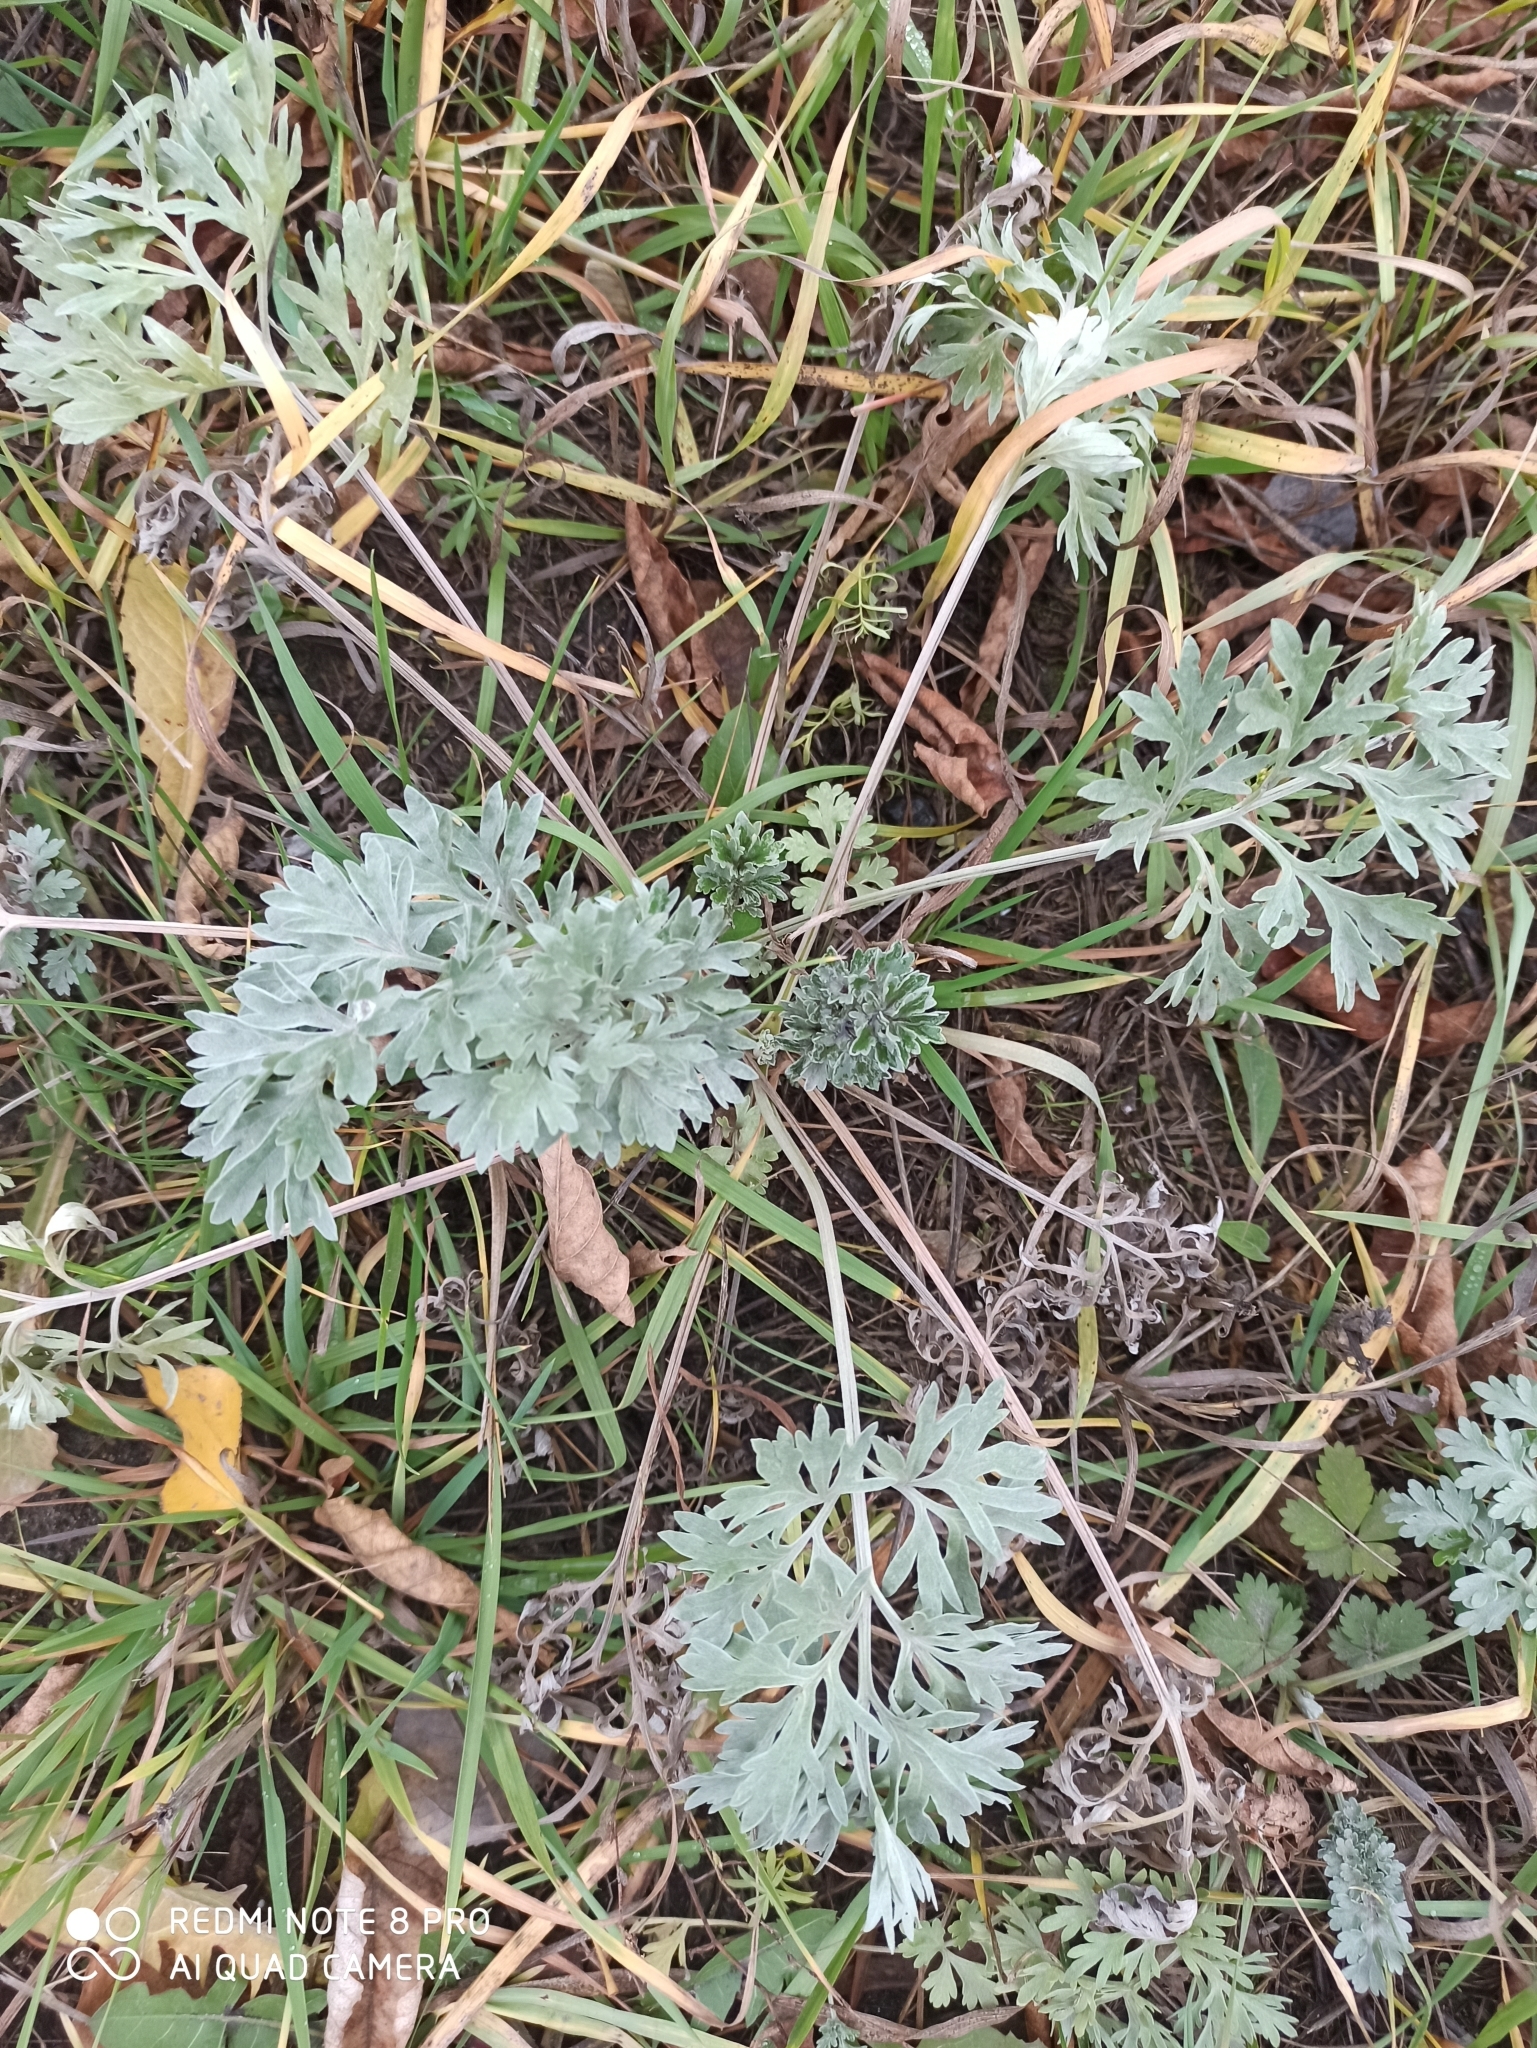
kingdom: Plantae
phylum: Tracheophyta
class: Magnoliopsida
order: Asterales
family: Asteraceae
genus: Artemisia
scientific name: Artemisia absinthium
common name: Wormwood
